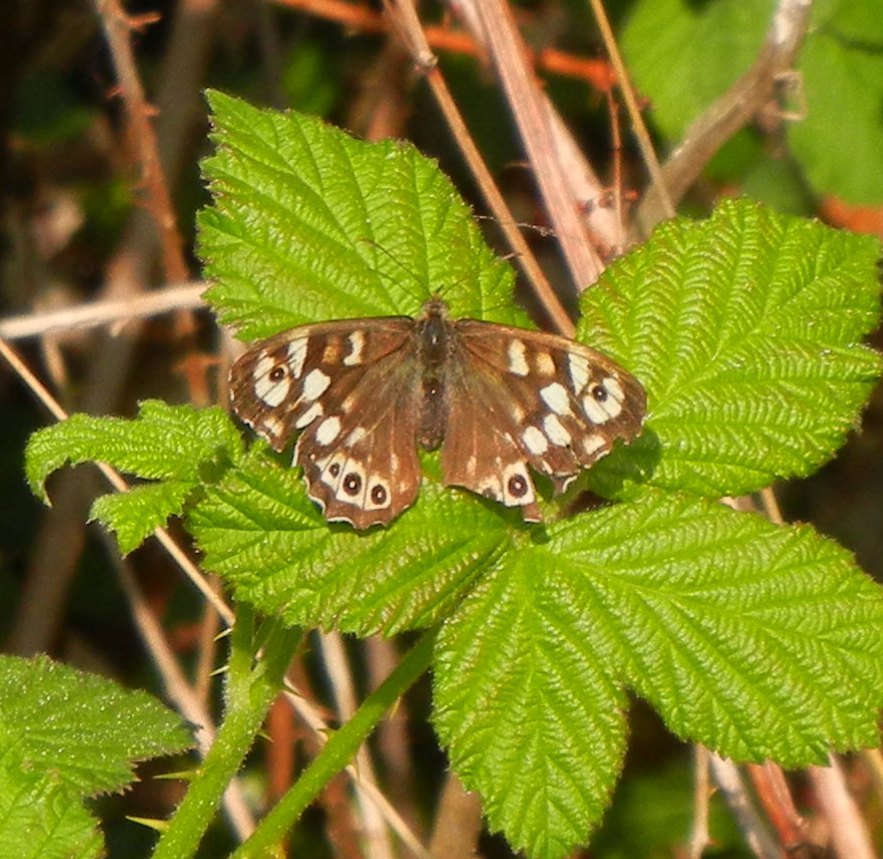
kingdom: Animalia
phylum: Arthropoda
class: Insecta
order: Lepidoptera
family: Nymphalidae
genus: Pararge
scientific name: Pararge aegeria
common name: Speckled wood
